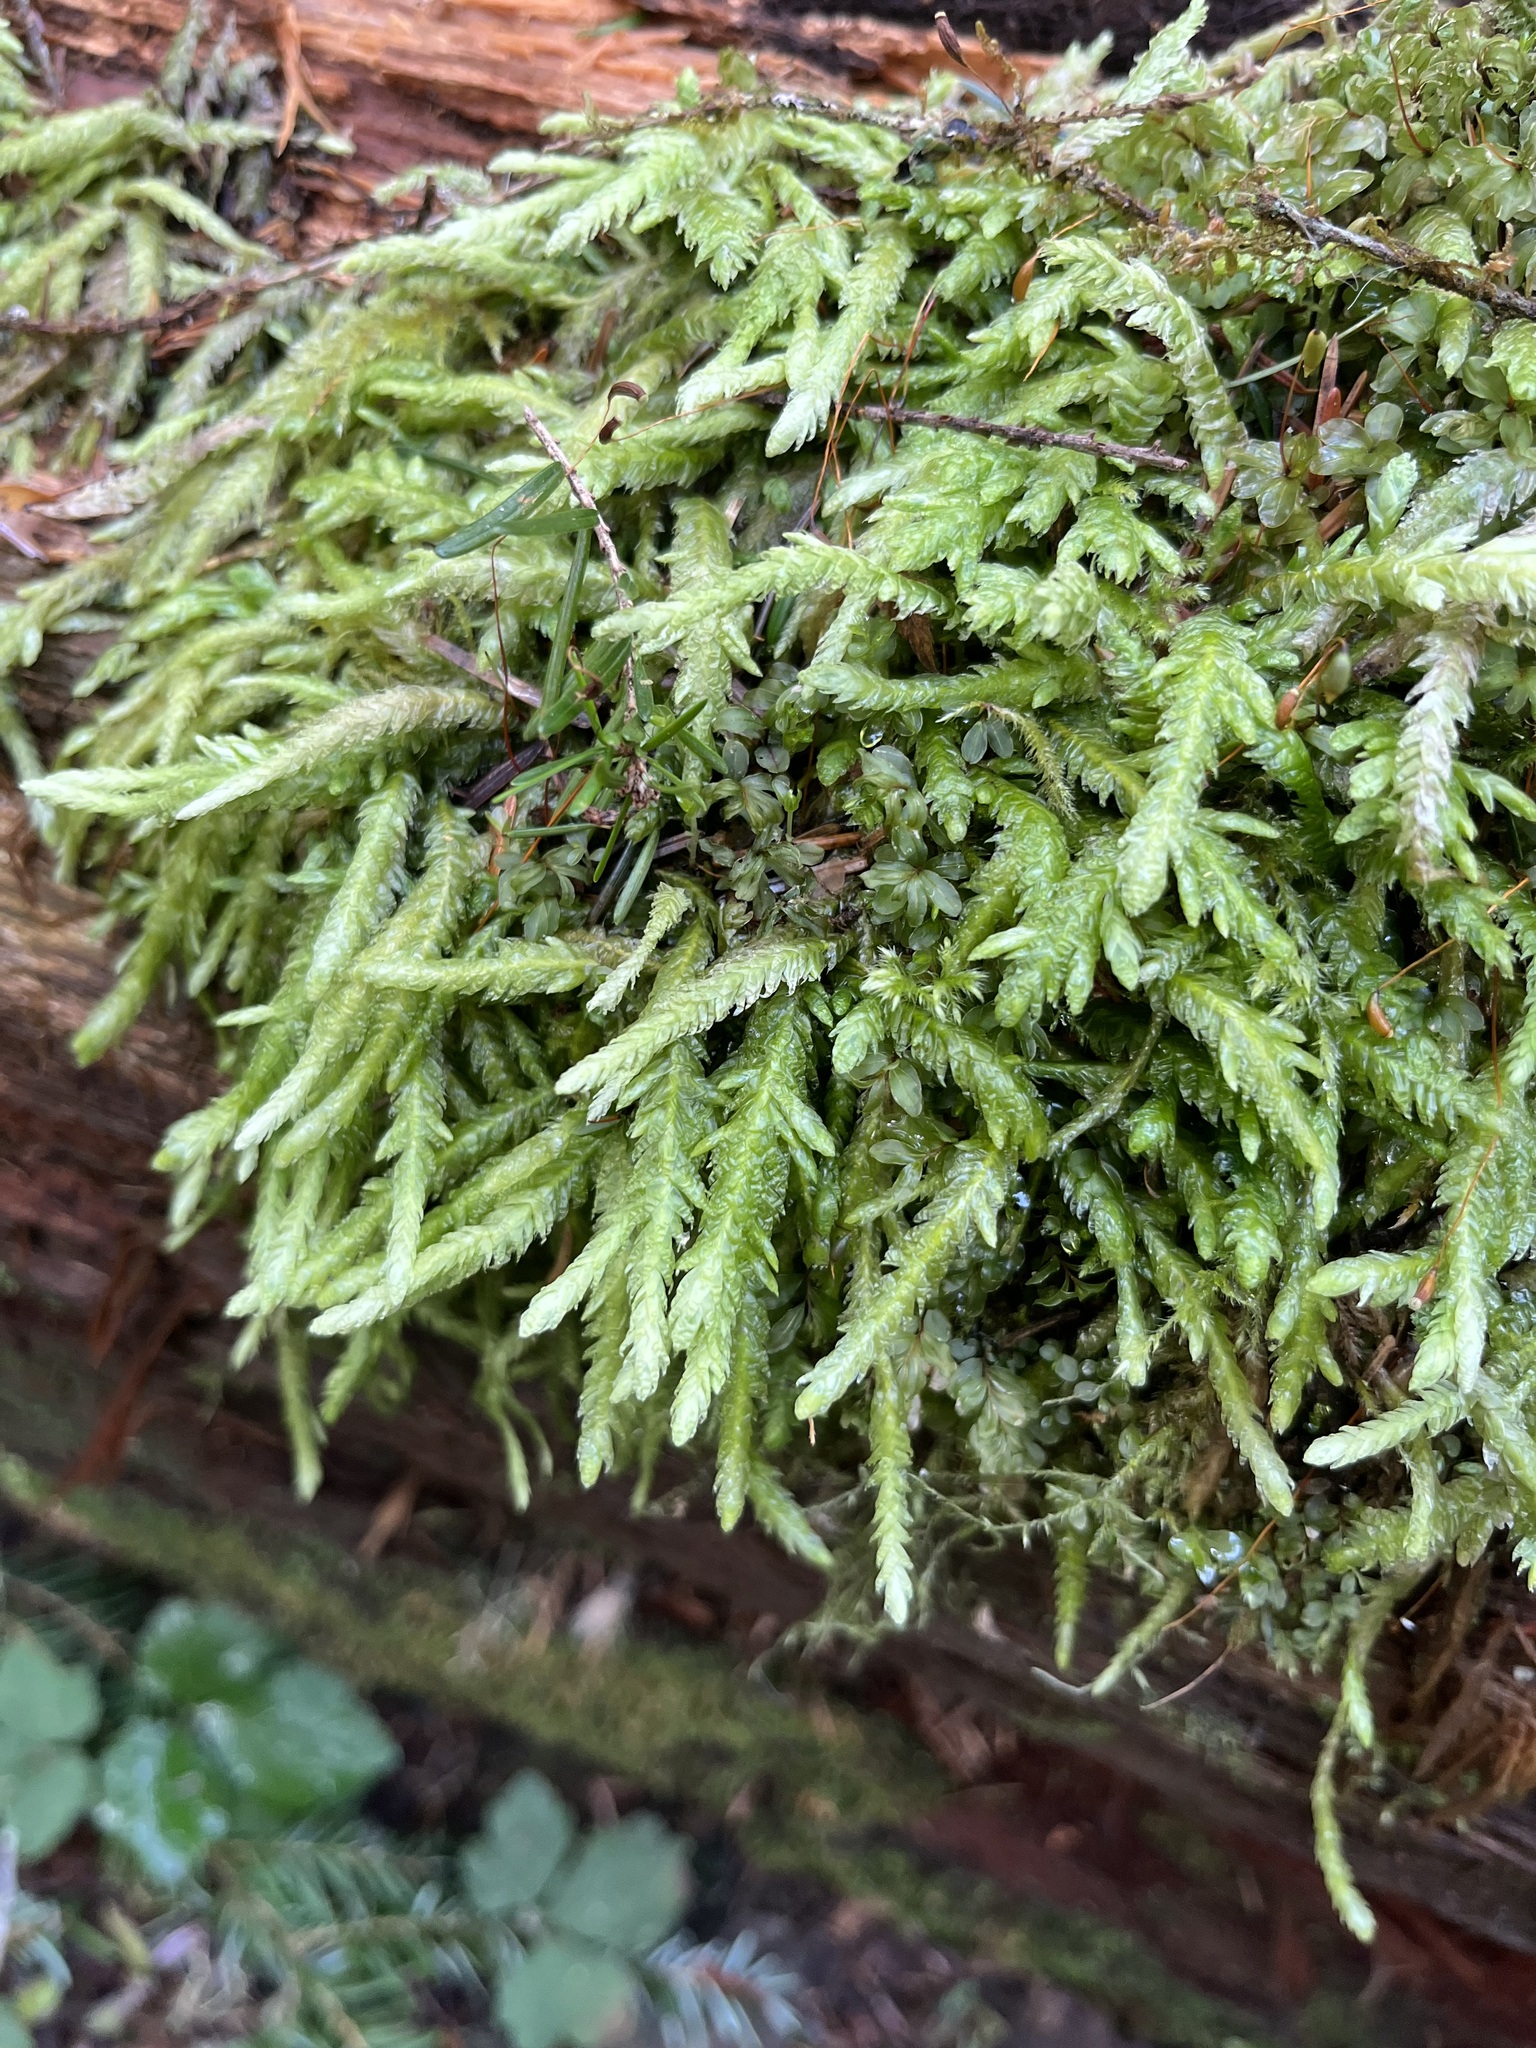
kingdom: Plantae
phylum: Bryophyta
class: Bryopsida
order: Hypnales
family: Plagiotheciaceae
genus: Plagiothecium
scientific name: Plagiothecium undulatum
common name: Waved silk-moss
